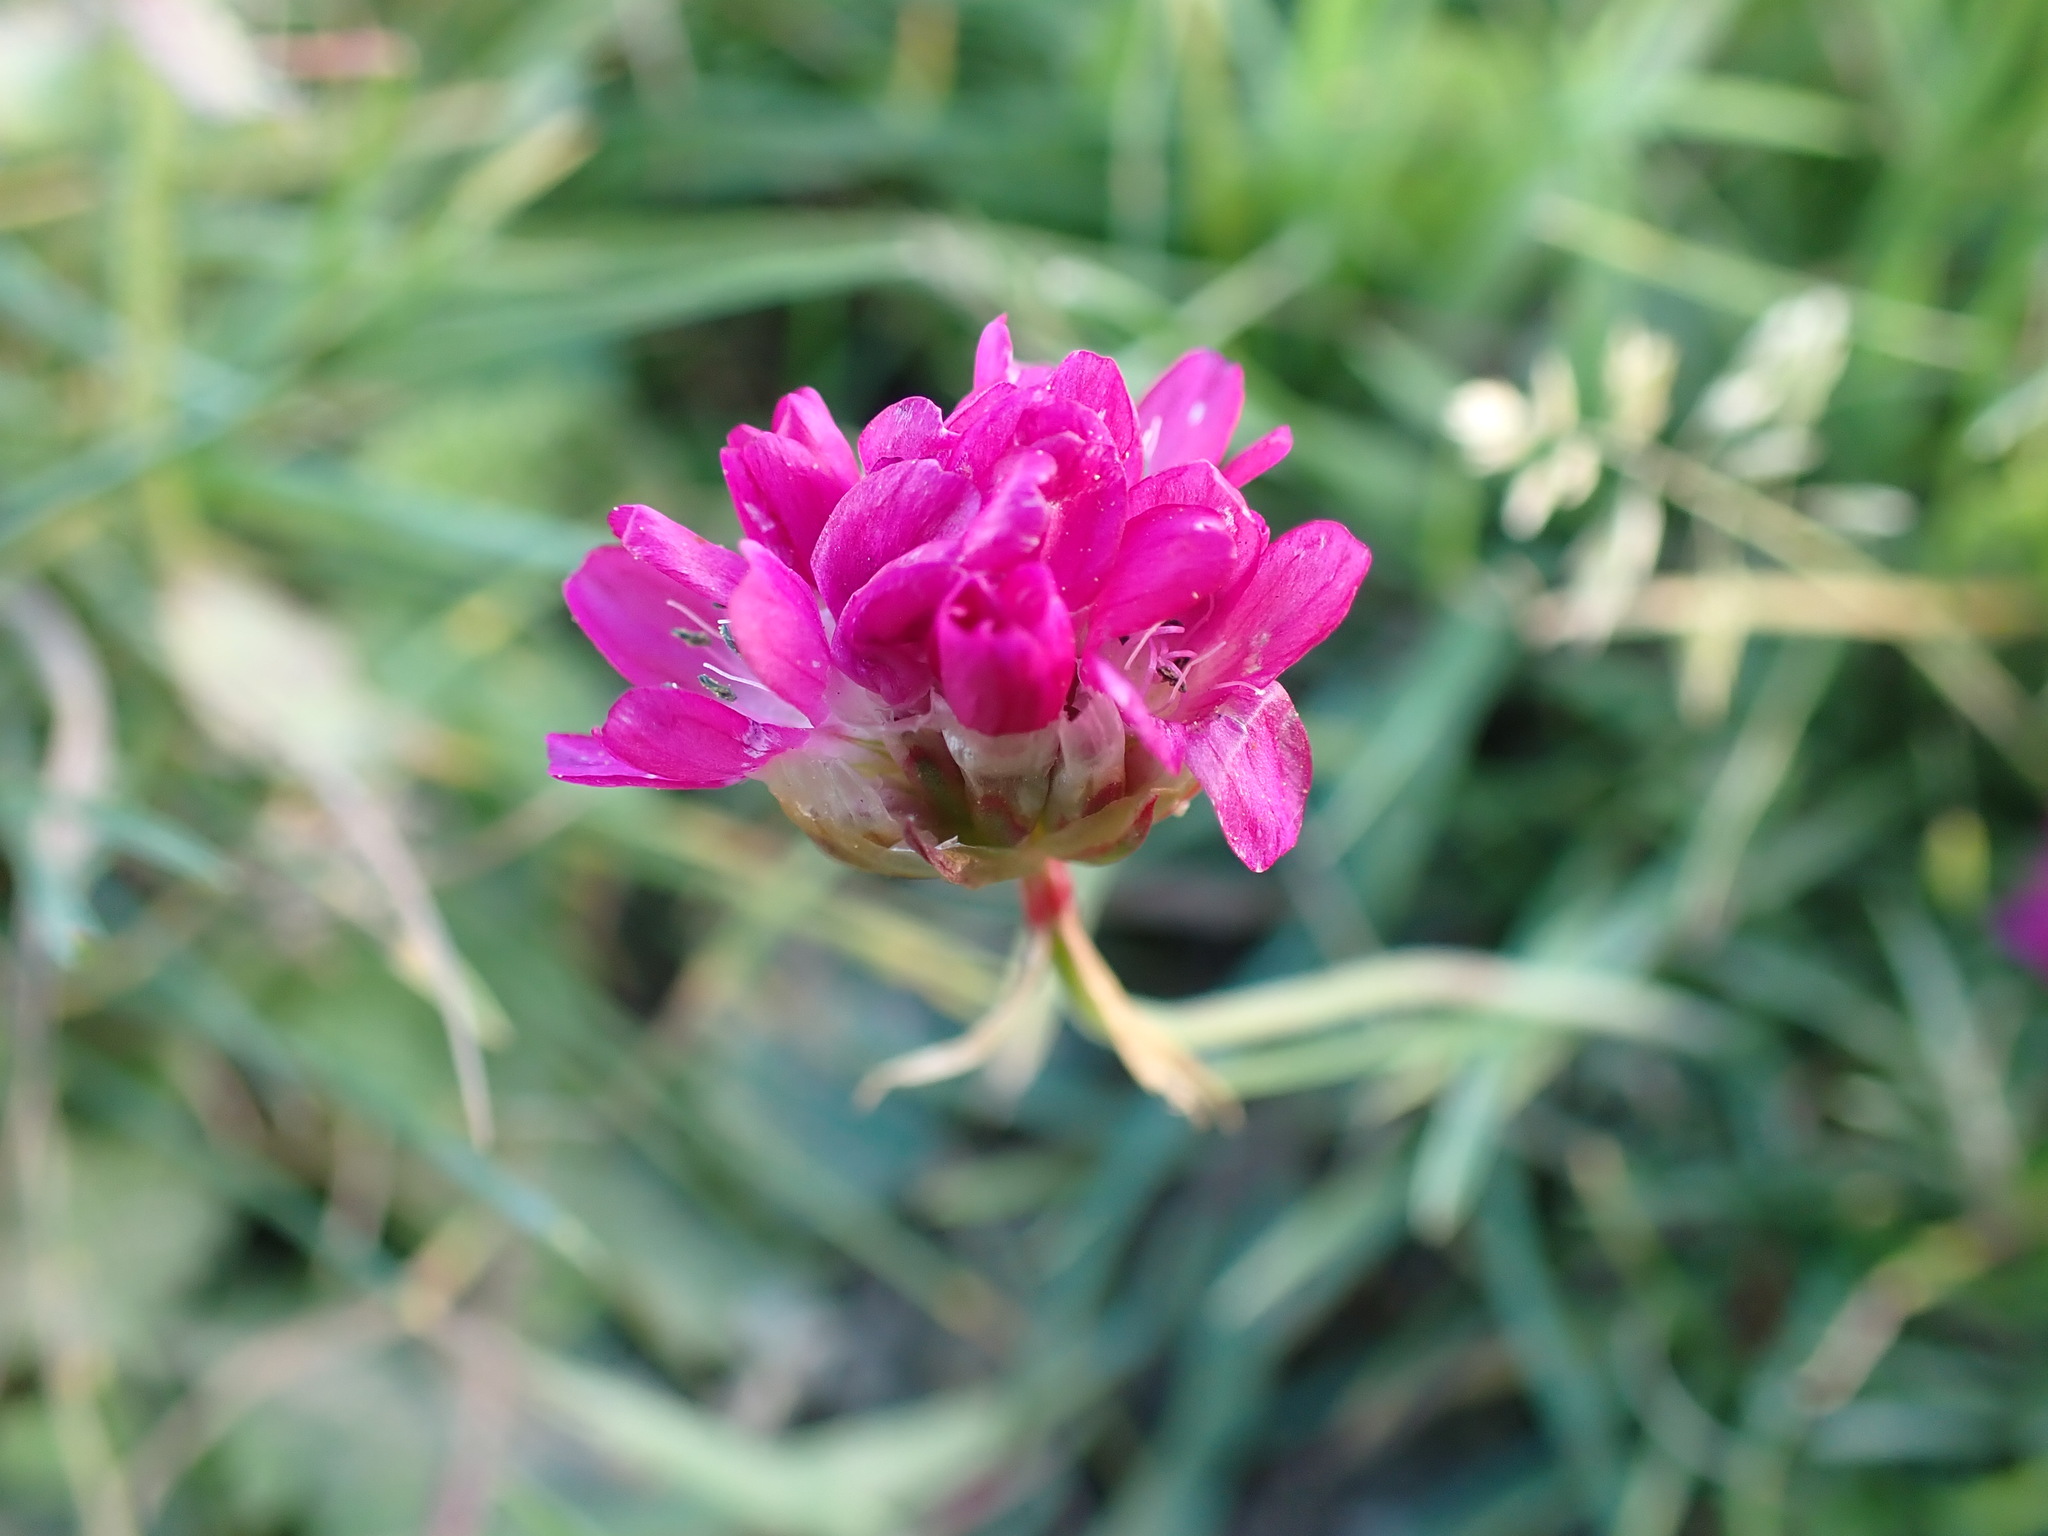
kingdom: Plantae
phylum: Tracheophyta
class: Magnoliopsida
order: Caryophyllales
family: Plumbaginaceae
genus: Armeria
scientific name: Armeria maritima
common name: Thrift
